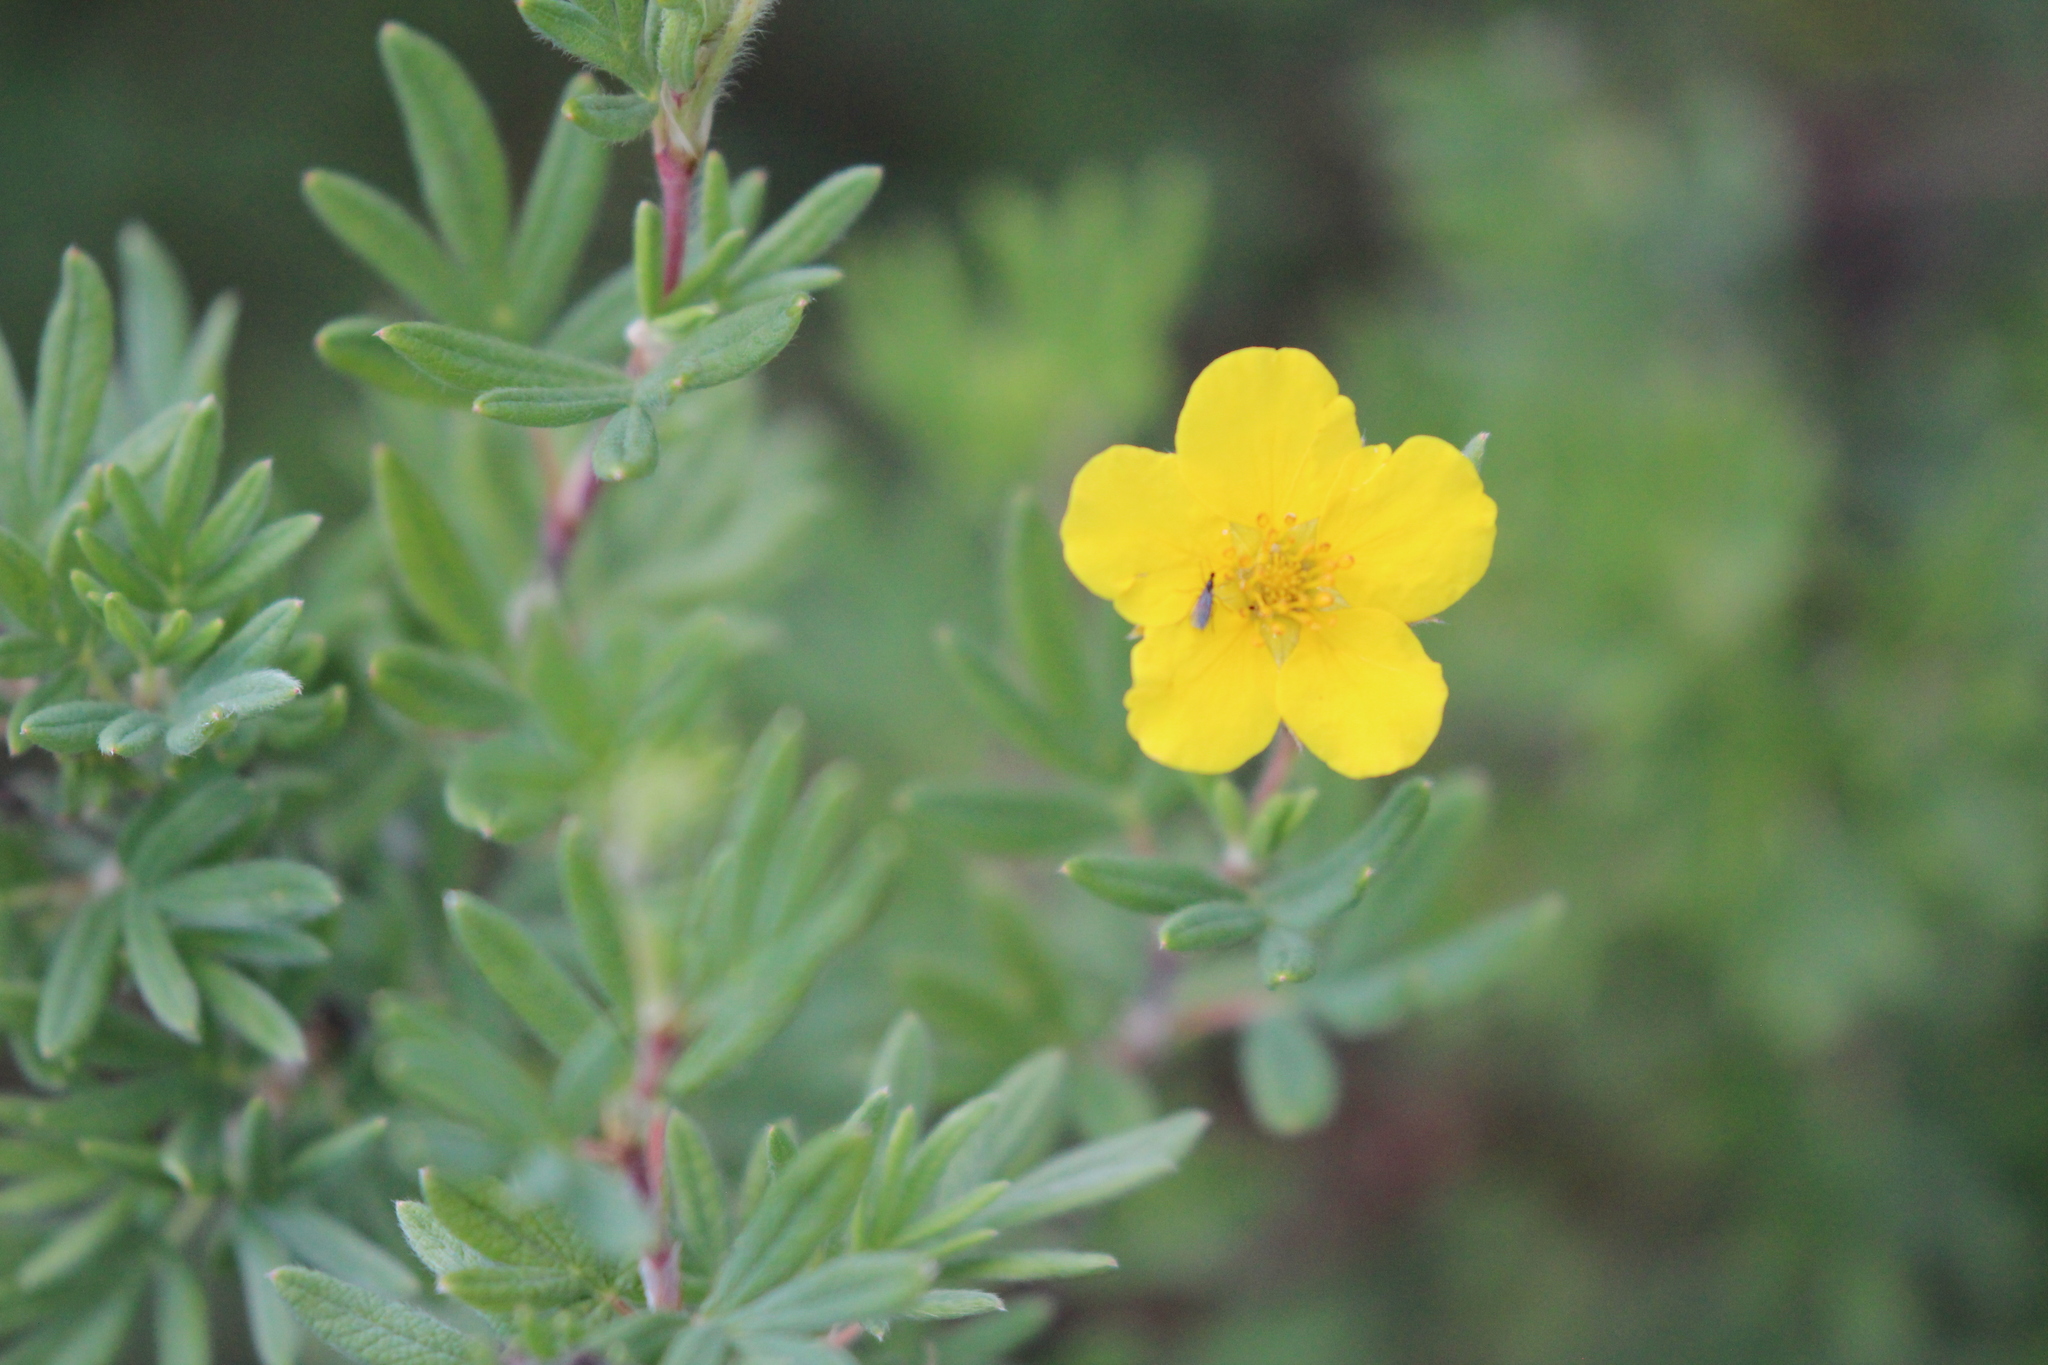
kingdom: Plantae
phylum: Tracheophyta
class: Magnoliopsida
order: Rosales
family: Rosaceae
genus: Dasiphora
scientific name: Dasiphora fruticosa
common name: Shrubby cinquefoil
